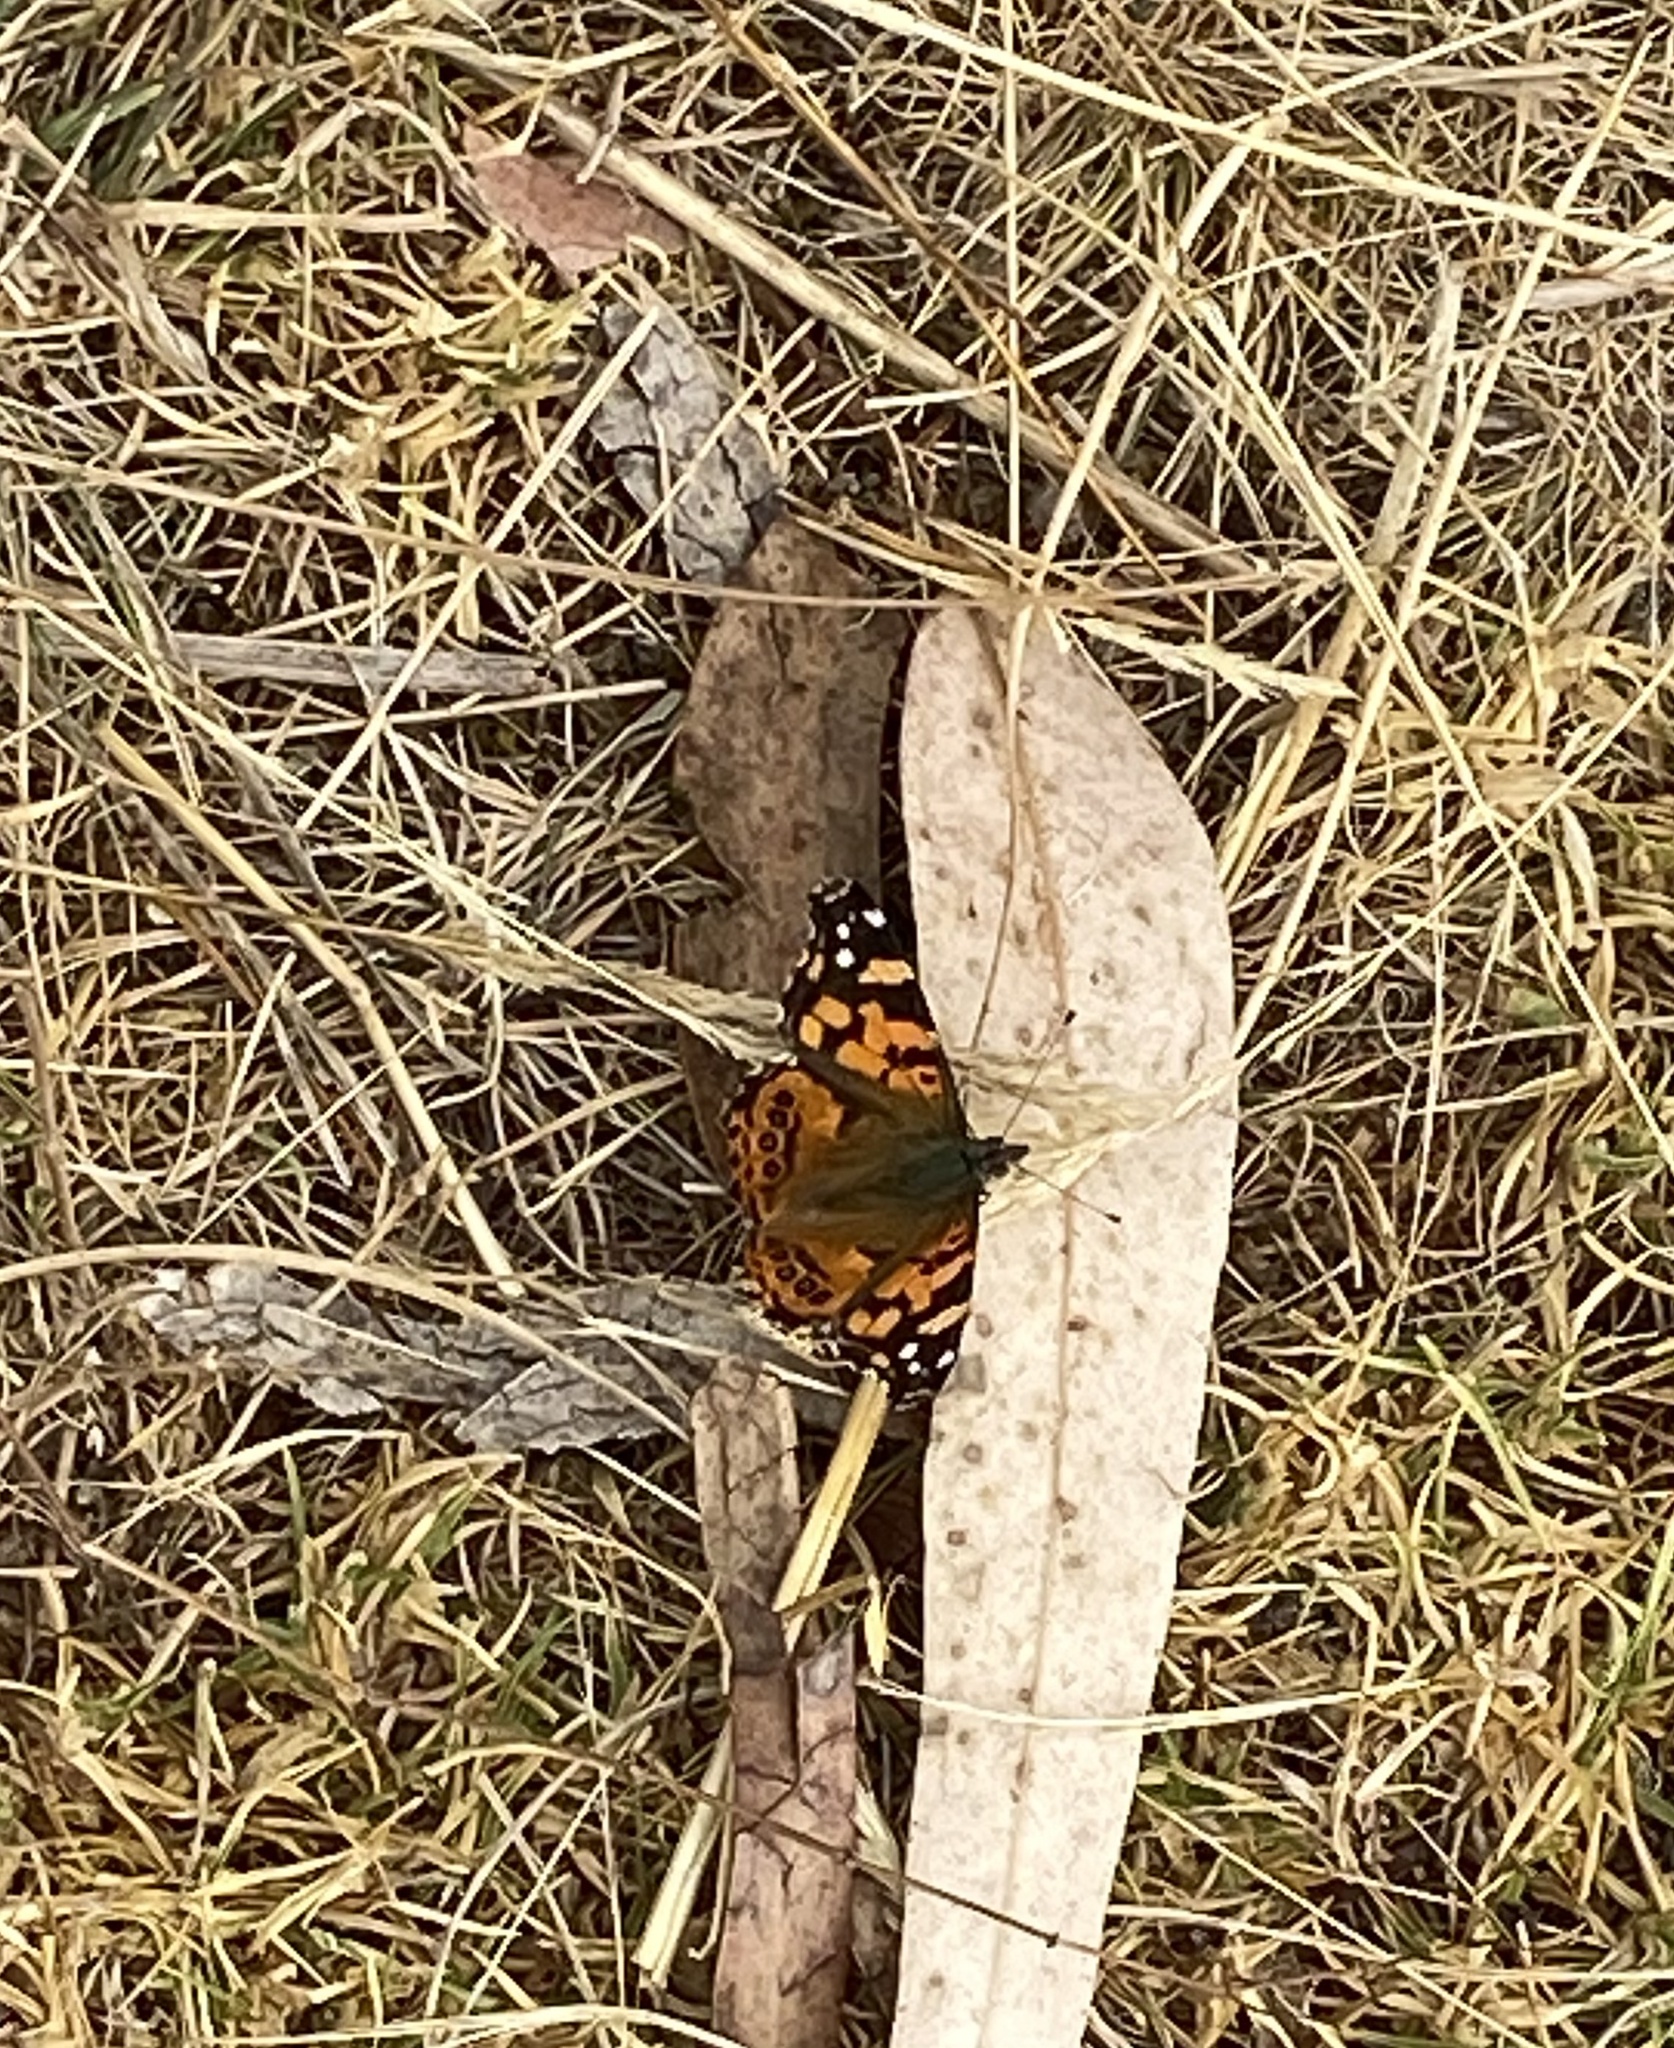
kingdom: Animalia
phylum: Arthropoda
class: Insecta
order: Lepidoptera
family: Nymphalidae
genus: Vanessa
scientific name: Vanessa carye
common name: Subtropical lady
